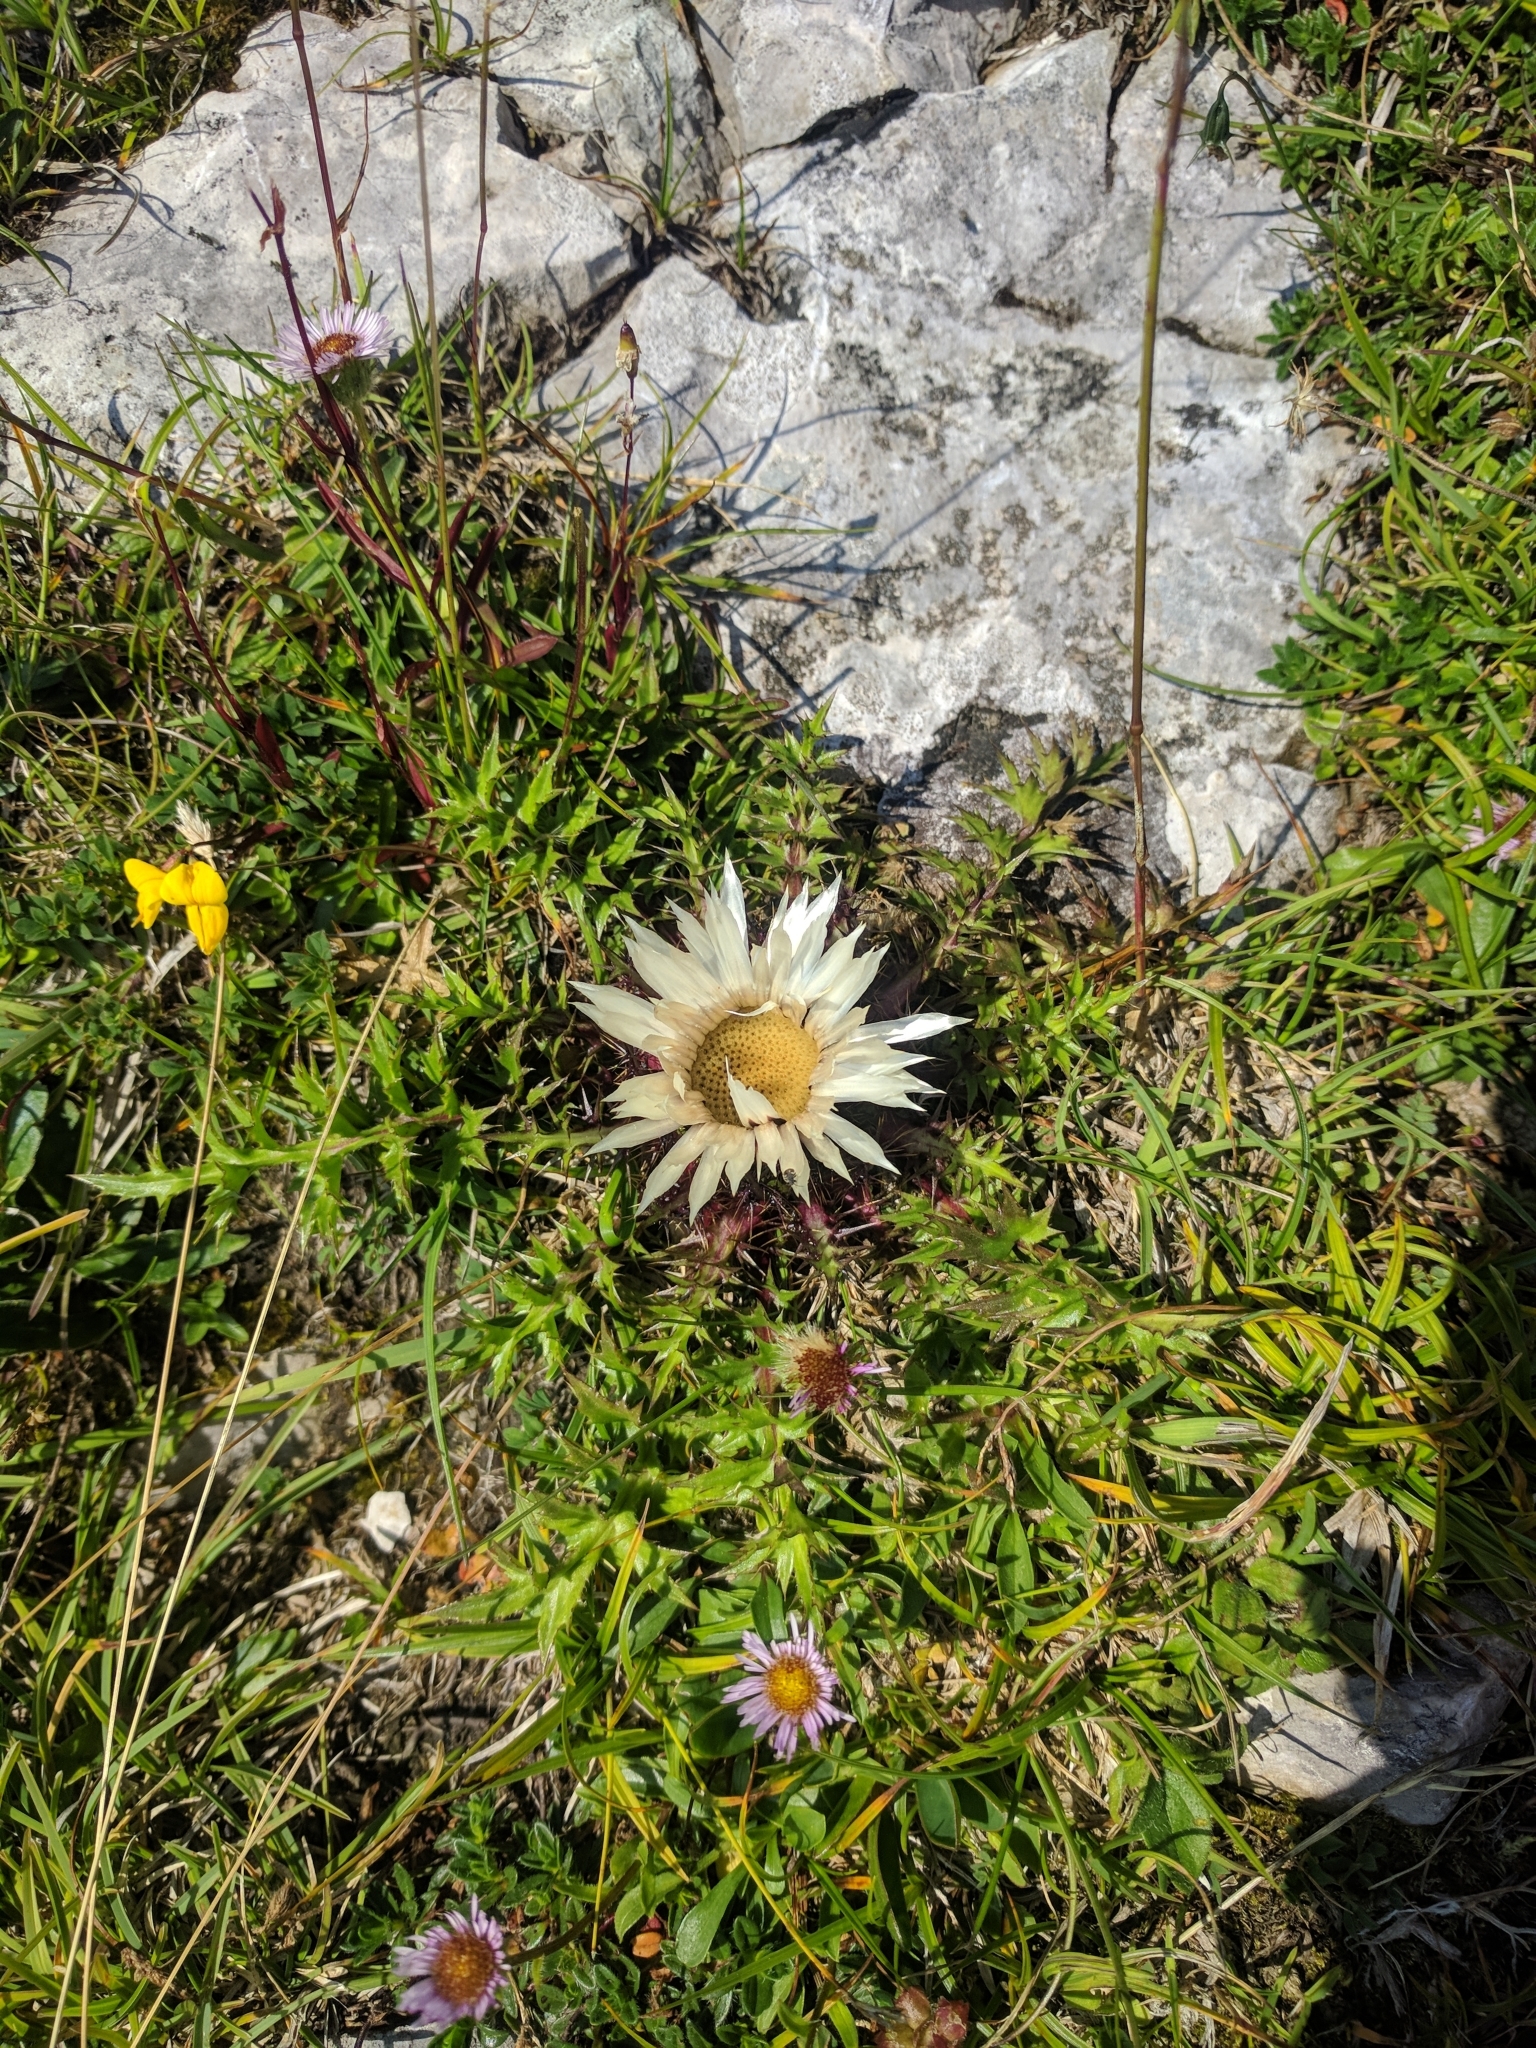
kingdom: Plantae
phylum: Tracheophyta
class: Magnoliopsida
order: Asterales
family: Asteraceae
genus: Carlina
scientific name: Carlina acaulis
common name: Stemless carline thistle
